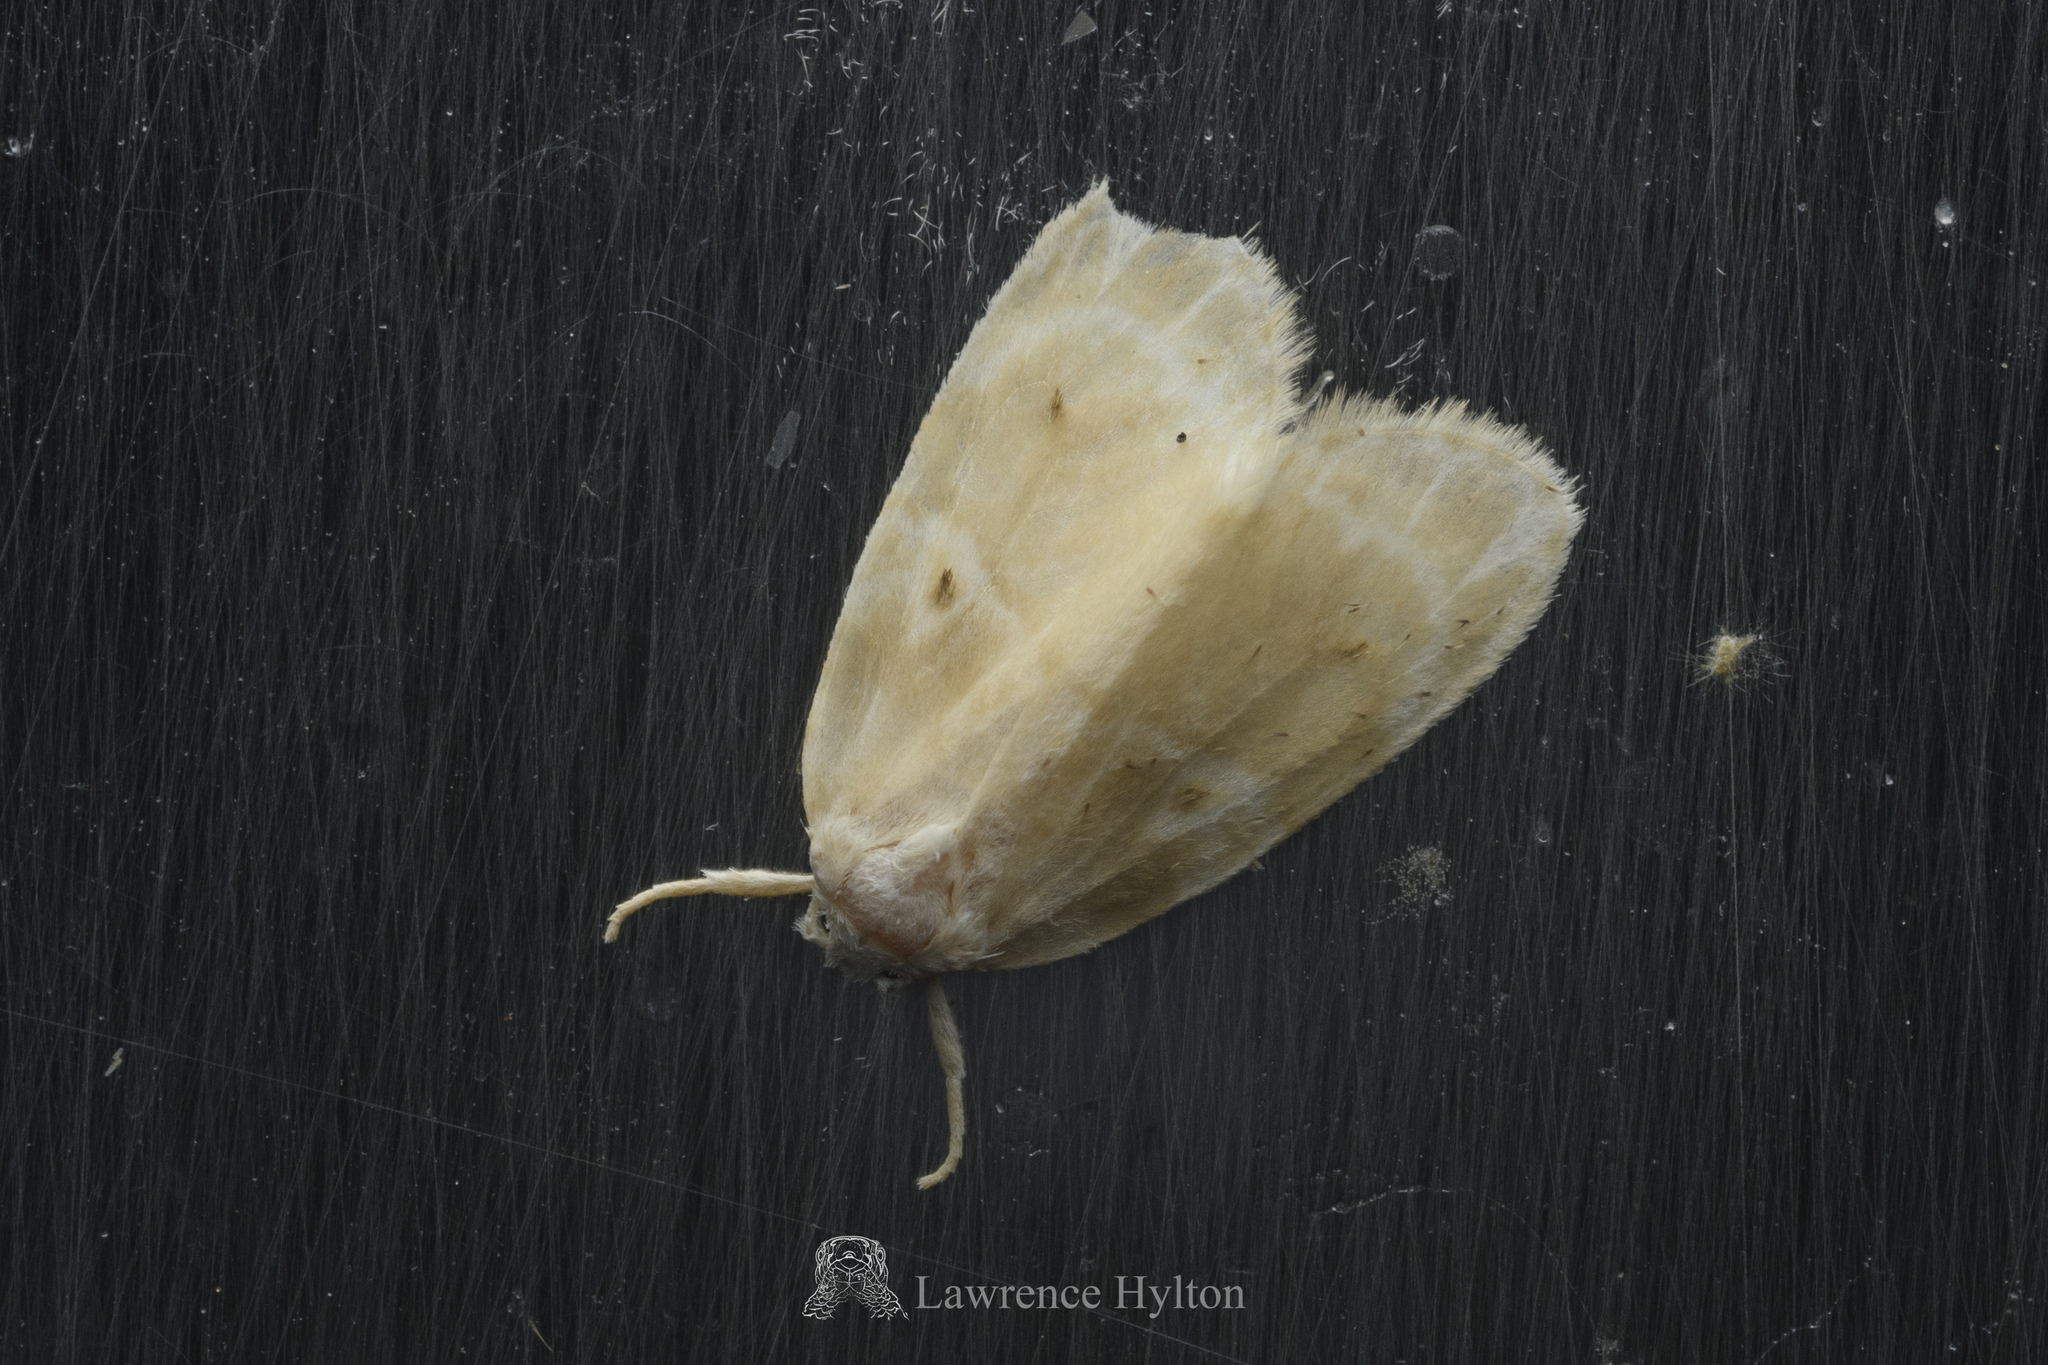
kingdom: Animalia
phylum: Arthropoda
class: Insecta
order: Lepidoptera
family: Erebidae
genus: Schistophleps
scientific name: Schistophleps bipuncta
